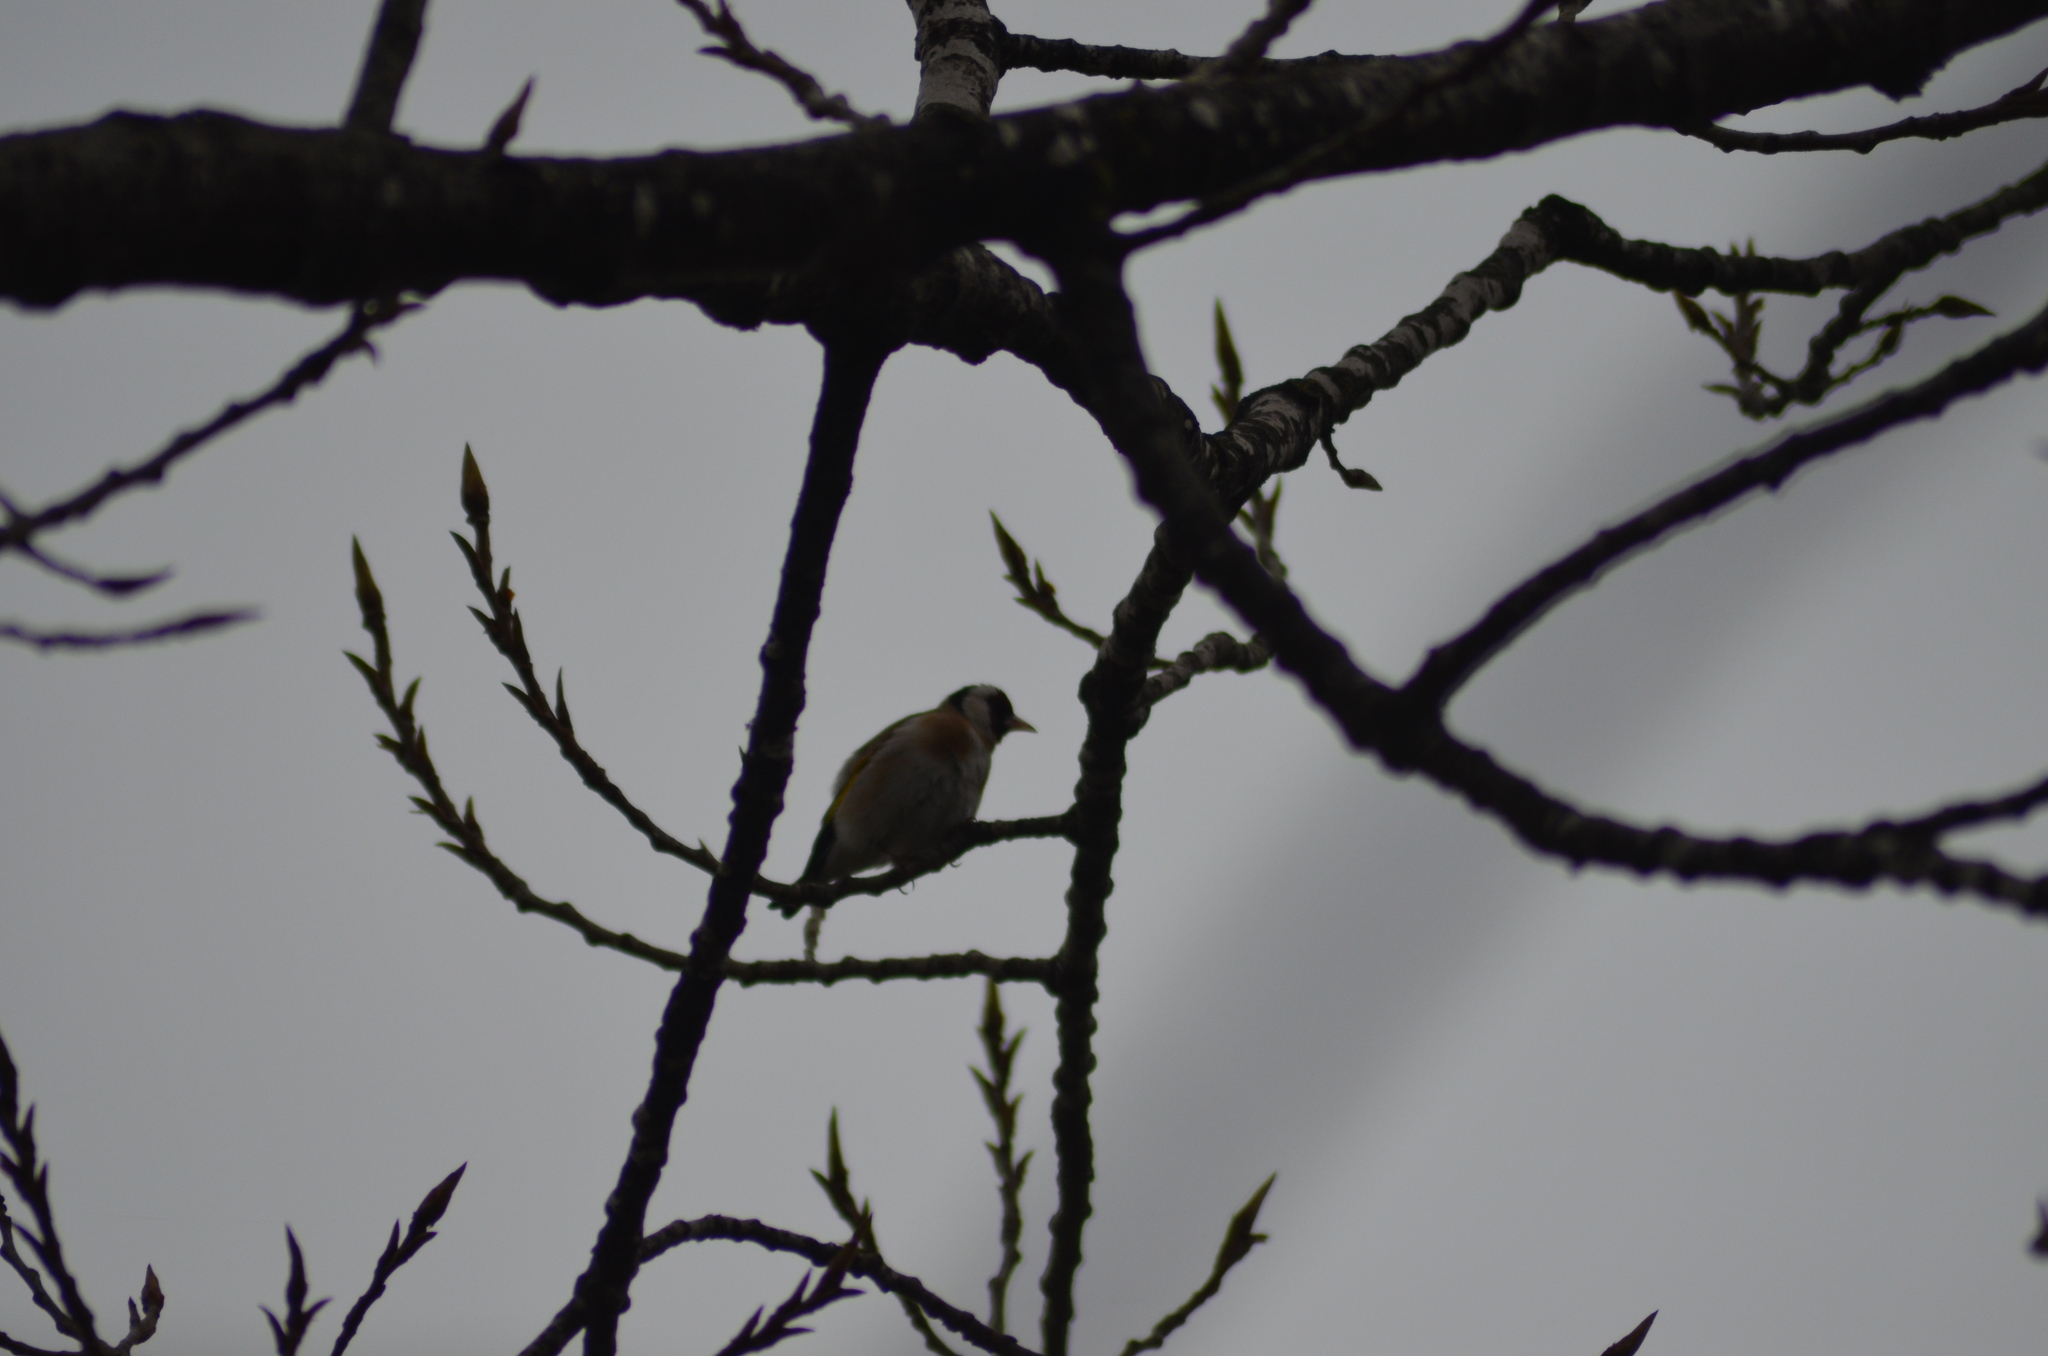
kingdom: Animalia
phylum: Chordata
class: Aves
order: Passeriformes
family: Fringillidae
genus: Carduelis
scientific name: Carduelis carduelis
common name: European goldfinch
